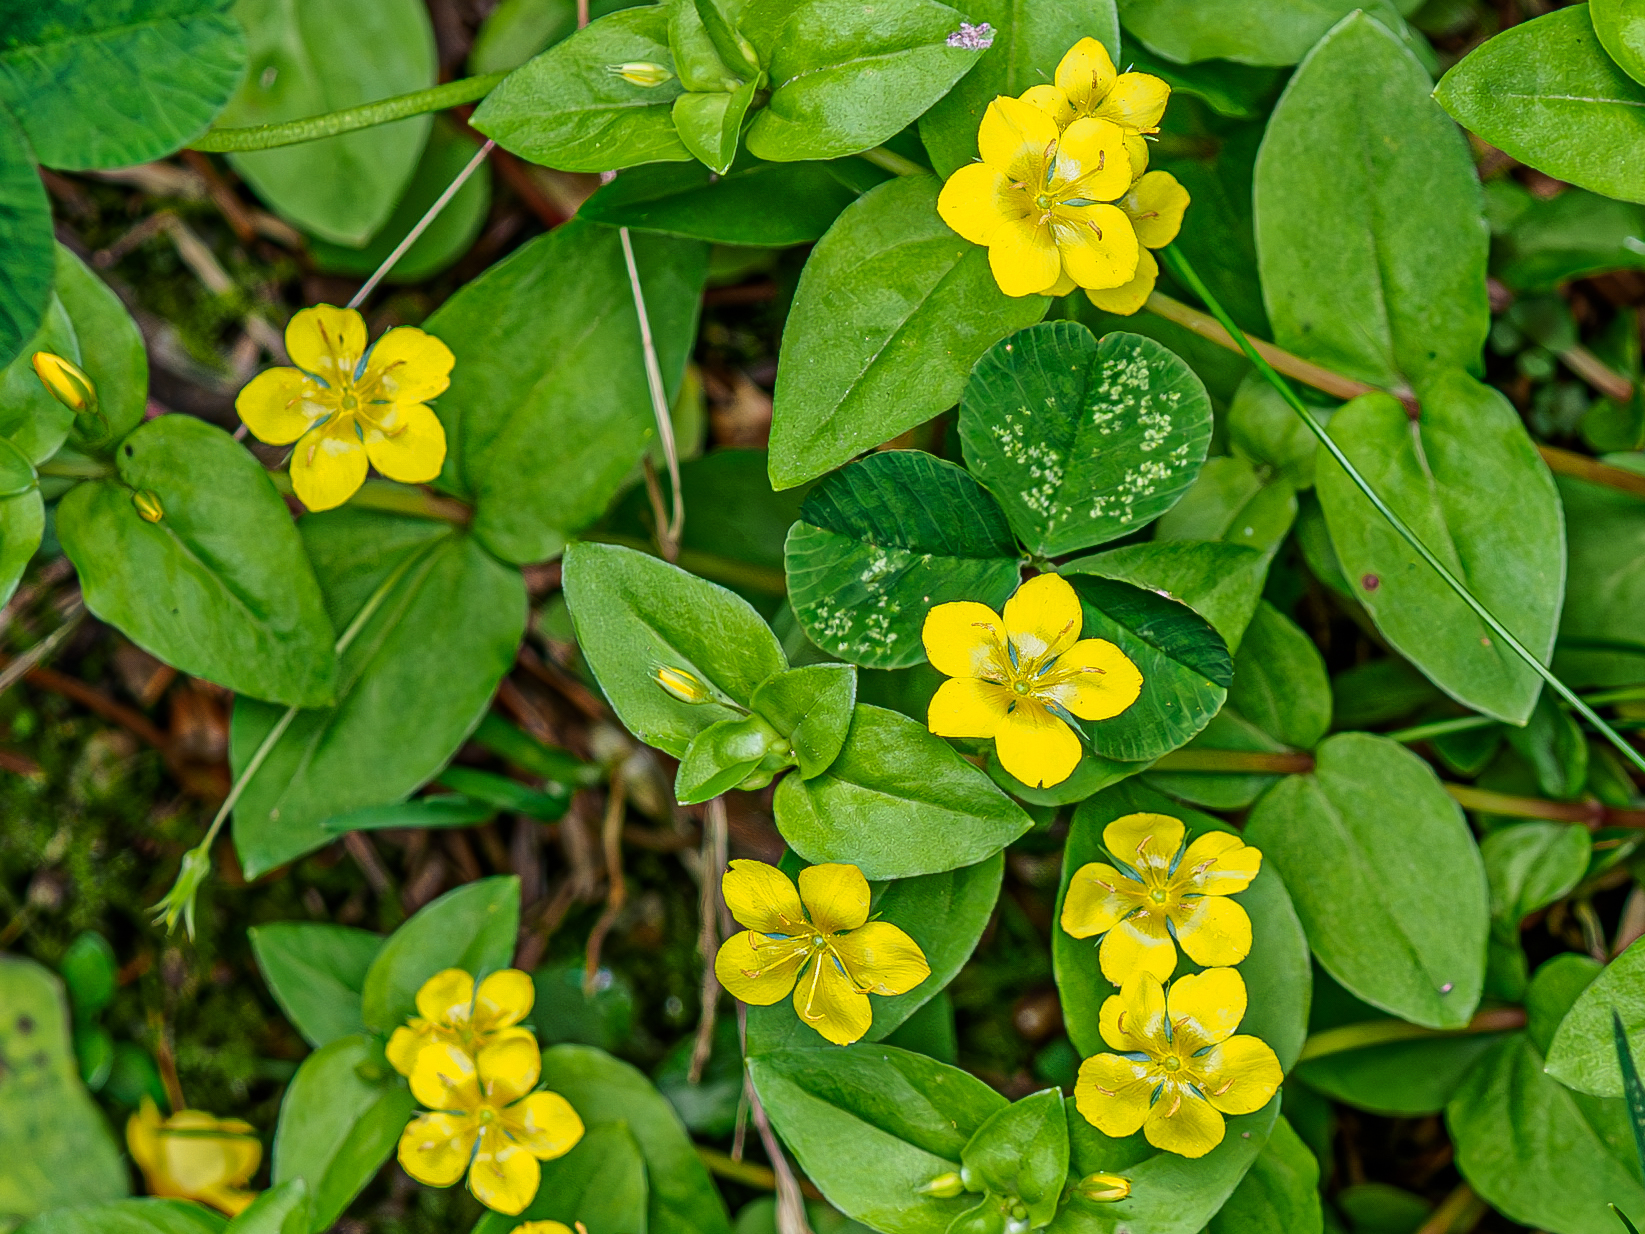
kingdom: Plantae
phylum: Tracheophyta
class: Magnoliopsida
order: Ericales
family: Primulaceae
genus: Lysimachia
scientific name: Lysimachia nemorum
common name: Yellow pimpernel
